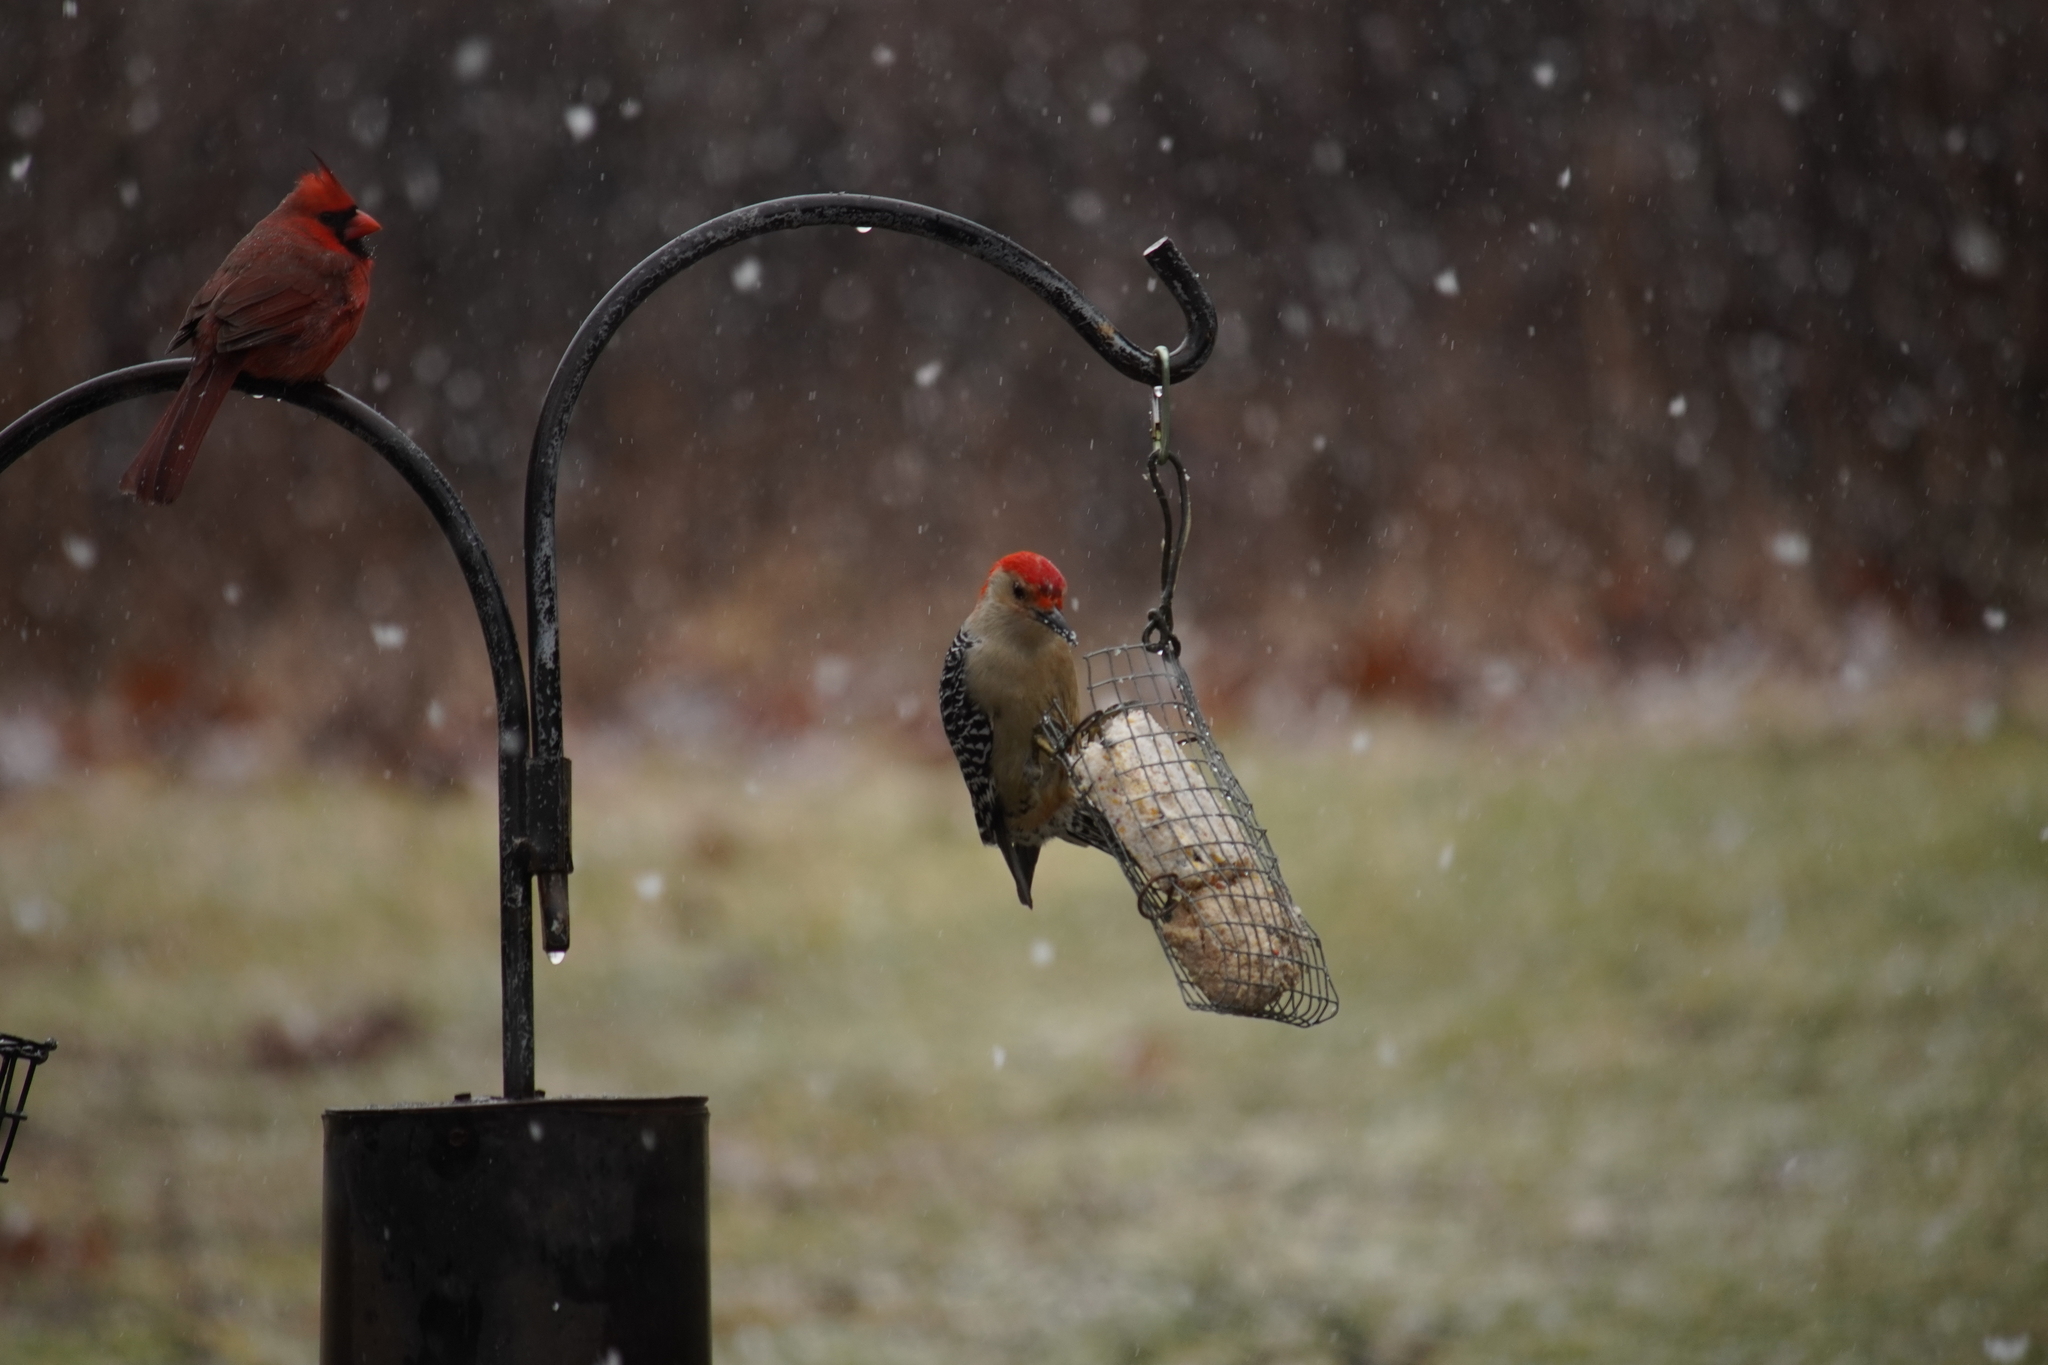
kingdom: Animalia
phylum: Chordata
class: Aves
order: Piciformes
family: Picidae
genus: Melanerpes
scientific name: Melanerpes carolinus
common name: Red-bellied woodpecker
